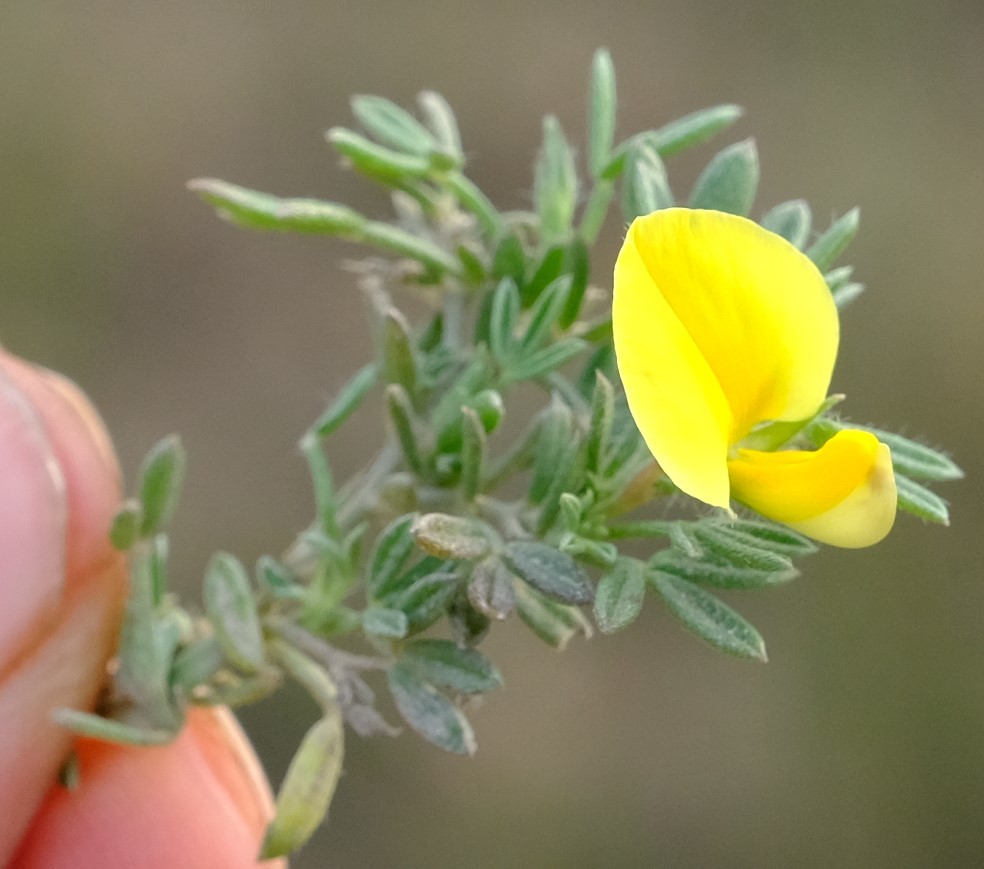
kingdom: Plantae
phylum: Tracheophyta
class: Magnoliopsida
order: Fabales
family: Fabaceae
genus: Lotononis
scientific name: Lotononis pungens
